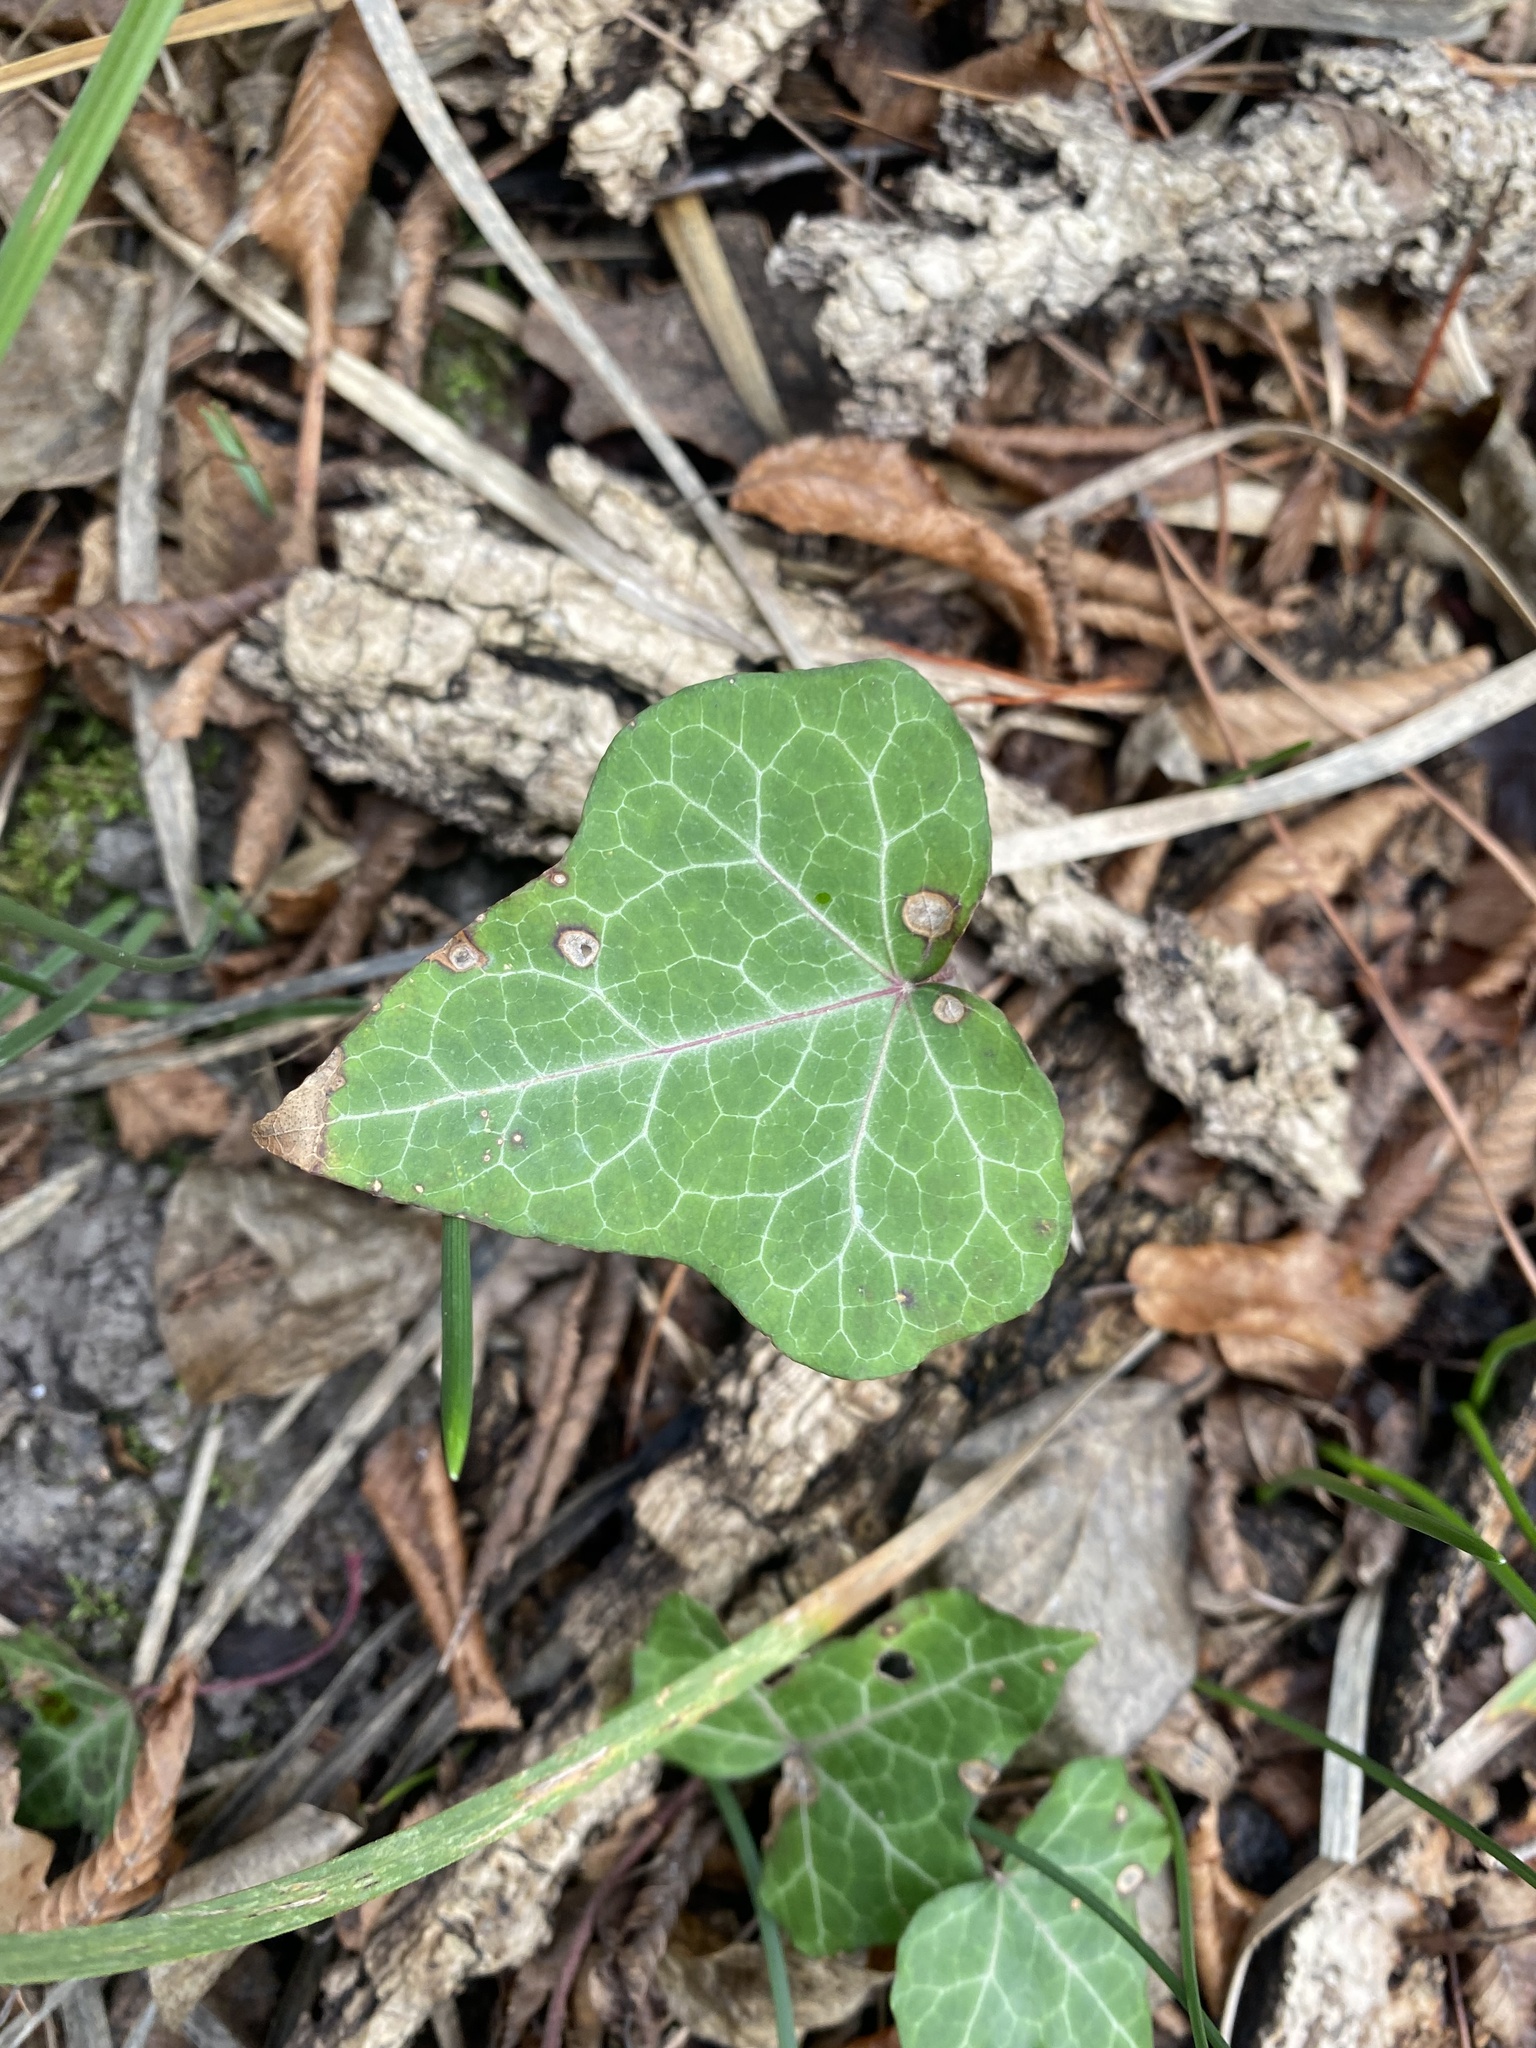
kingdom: Plantae
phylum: Tracheophyta
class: Magnoliopsida
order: Apiales
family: Araliaceae
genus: Hedera
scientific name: Hedera helix
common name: Ivy
